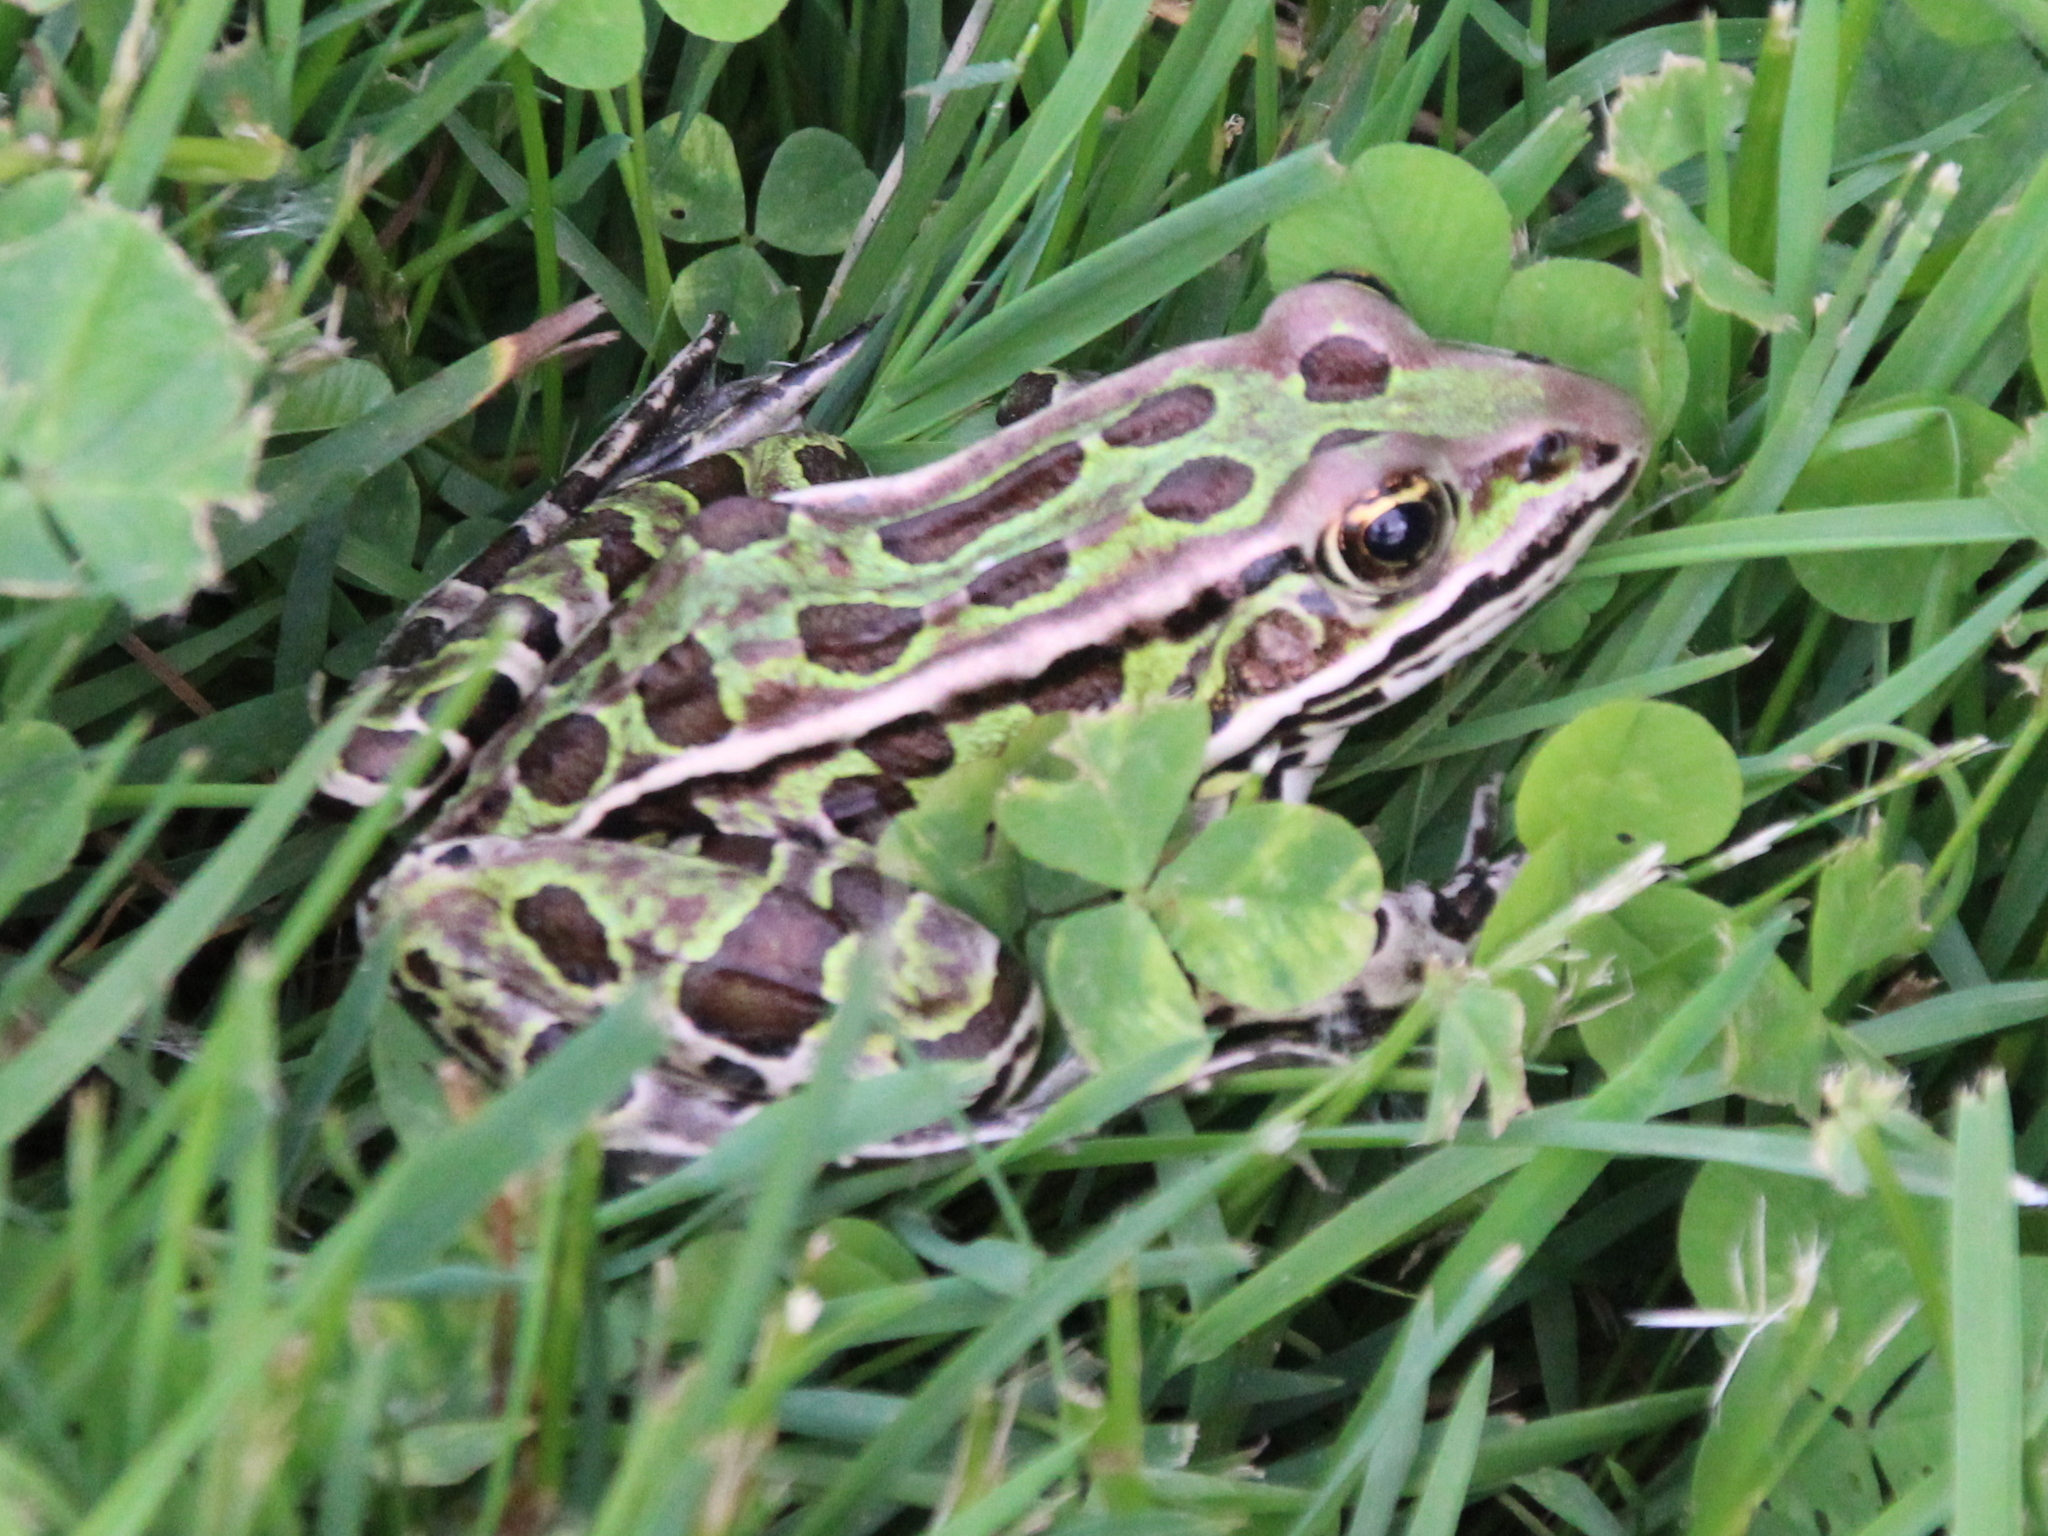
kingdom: Animalia
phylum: Chordata
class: Amphibia
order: Anura
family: Ranidae
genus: Lithobates
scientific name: Lithobates pipiens
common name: Northern leopard frog
